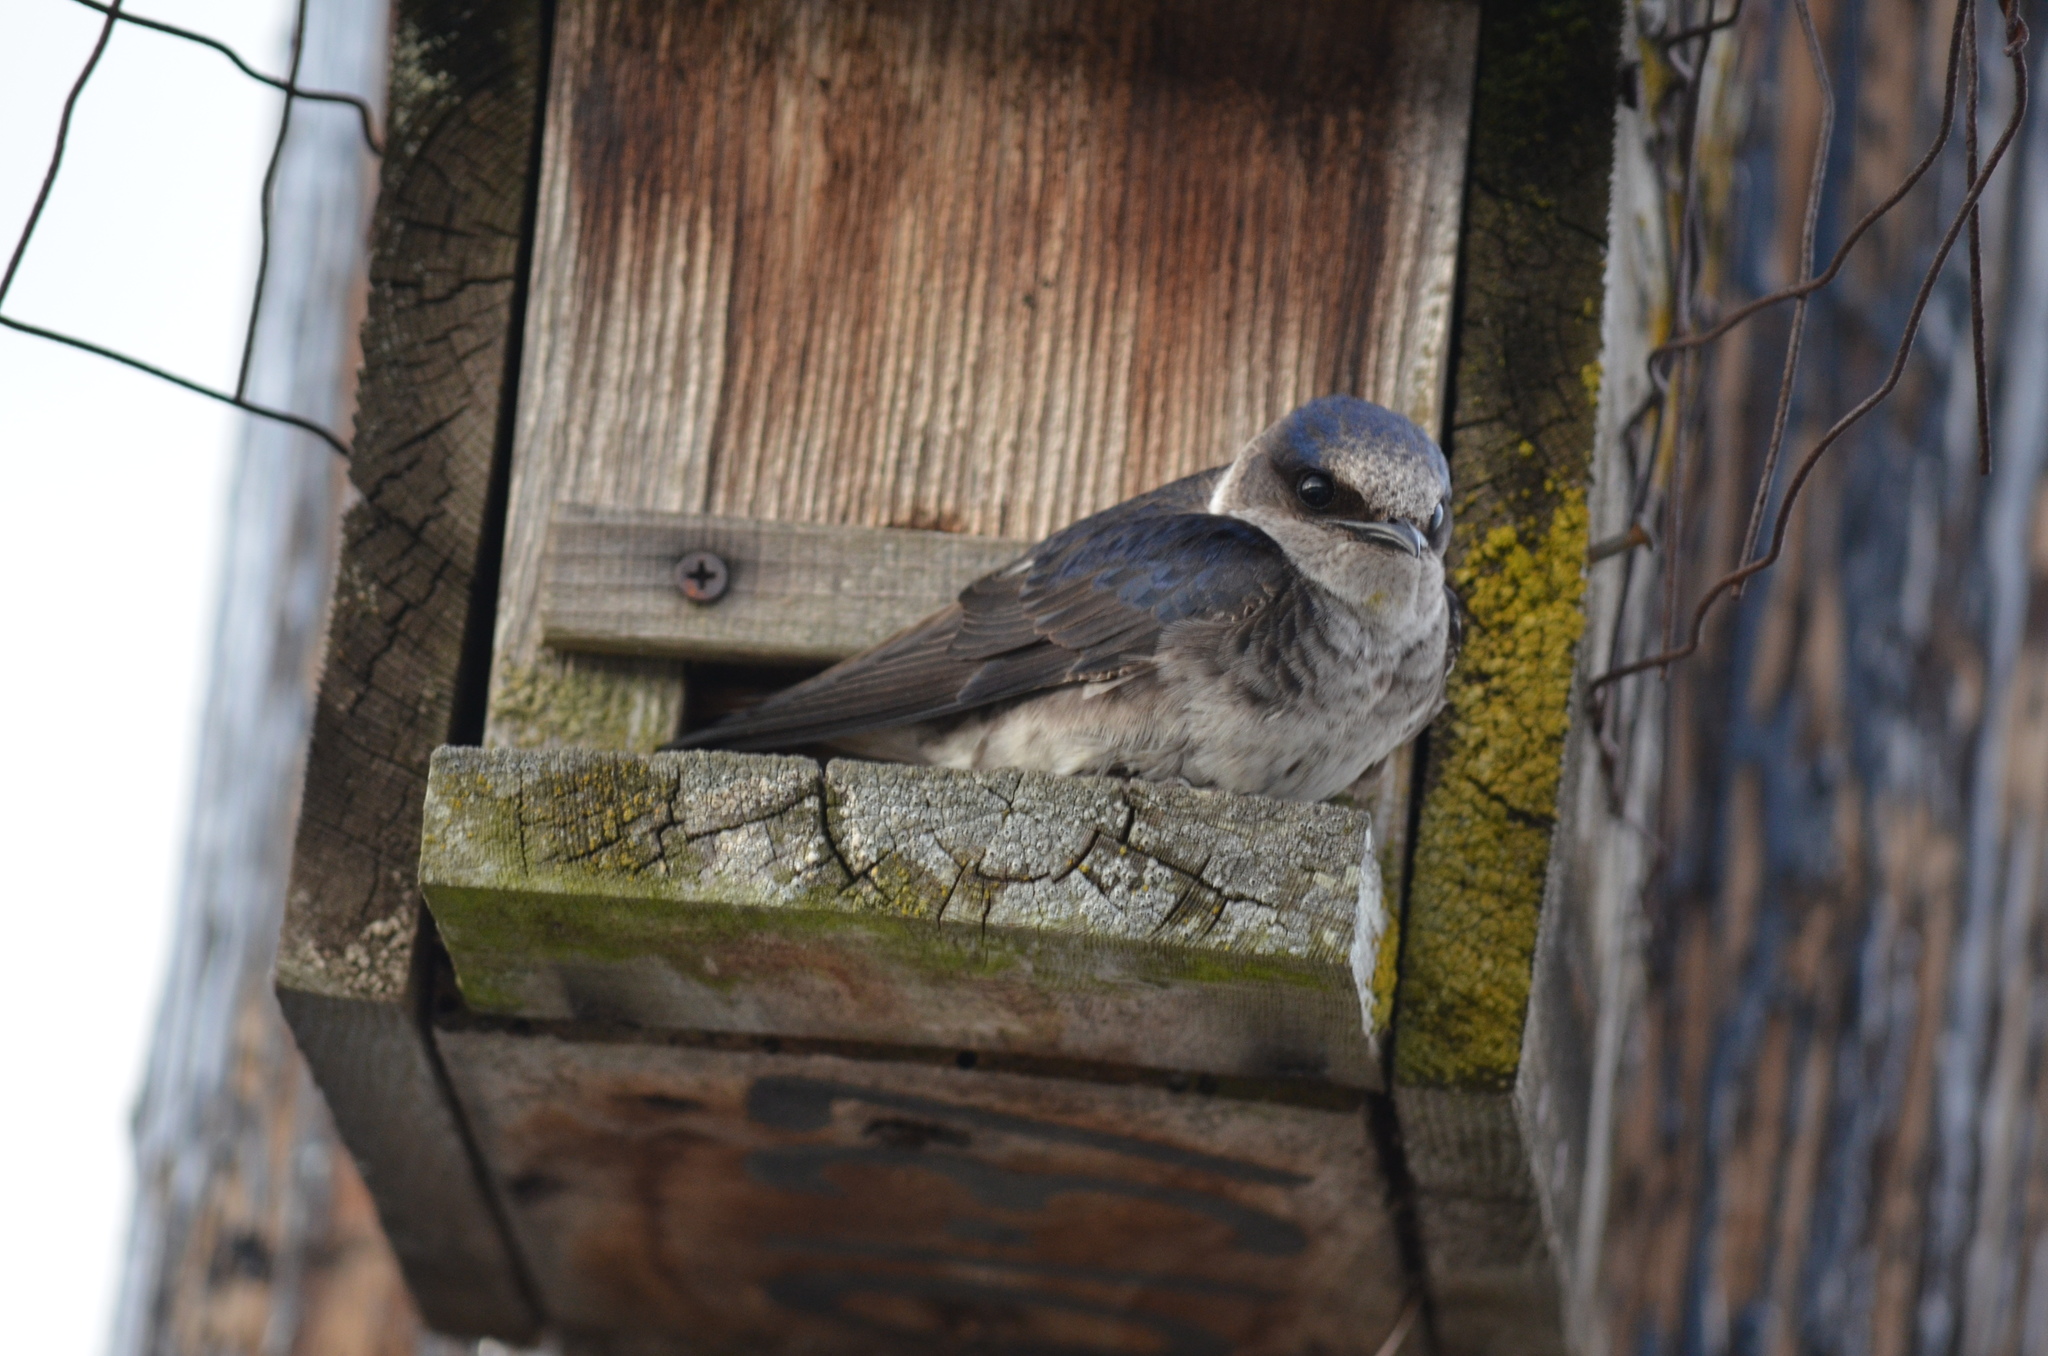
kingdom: Animalia
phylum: Chordata
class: Aves
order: Passeriformes
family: Hirundinidae
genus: Progne
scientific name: Progne subis
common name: Purple martin
